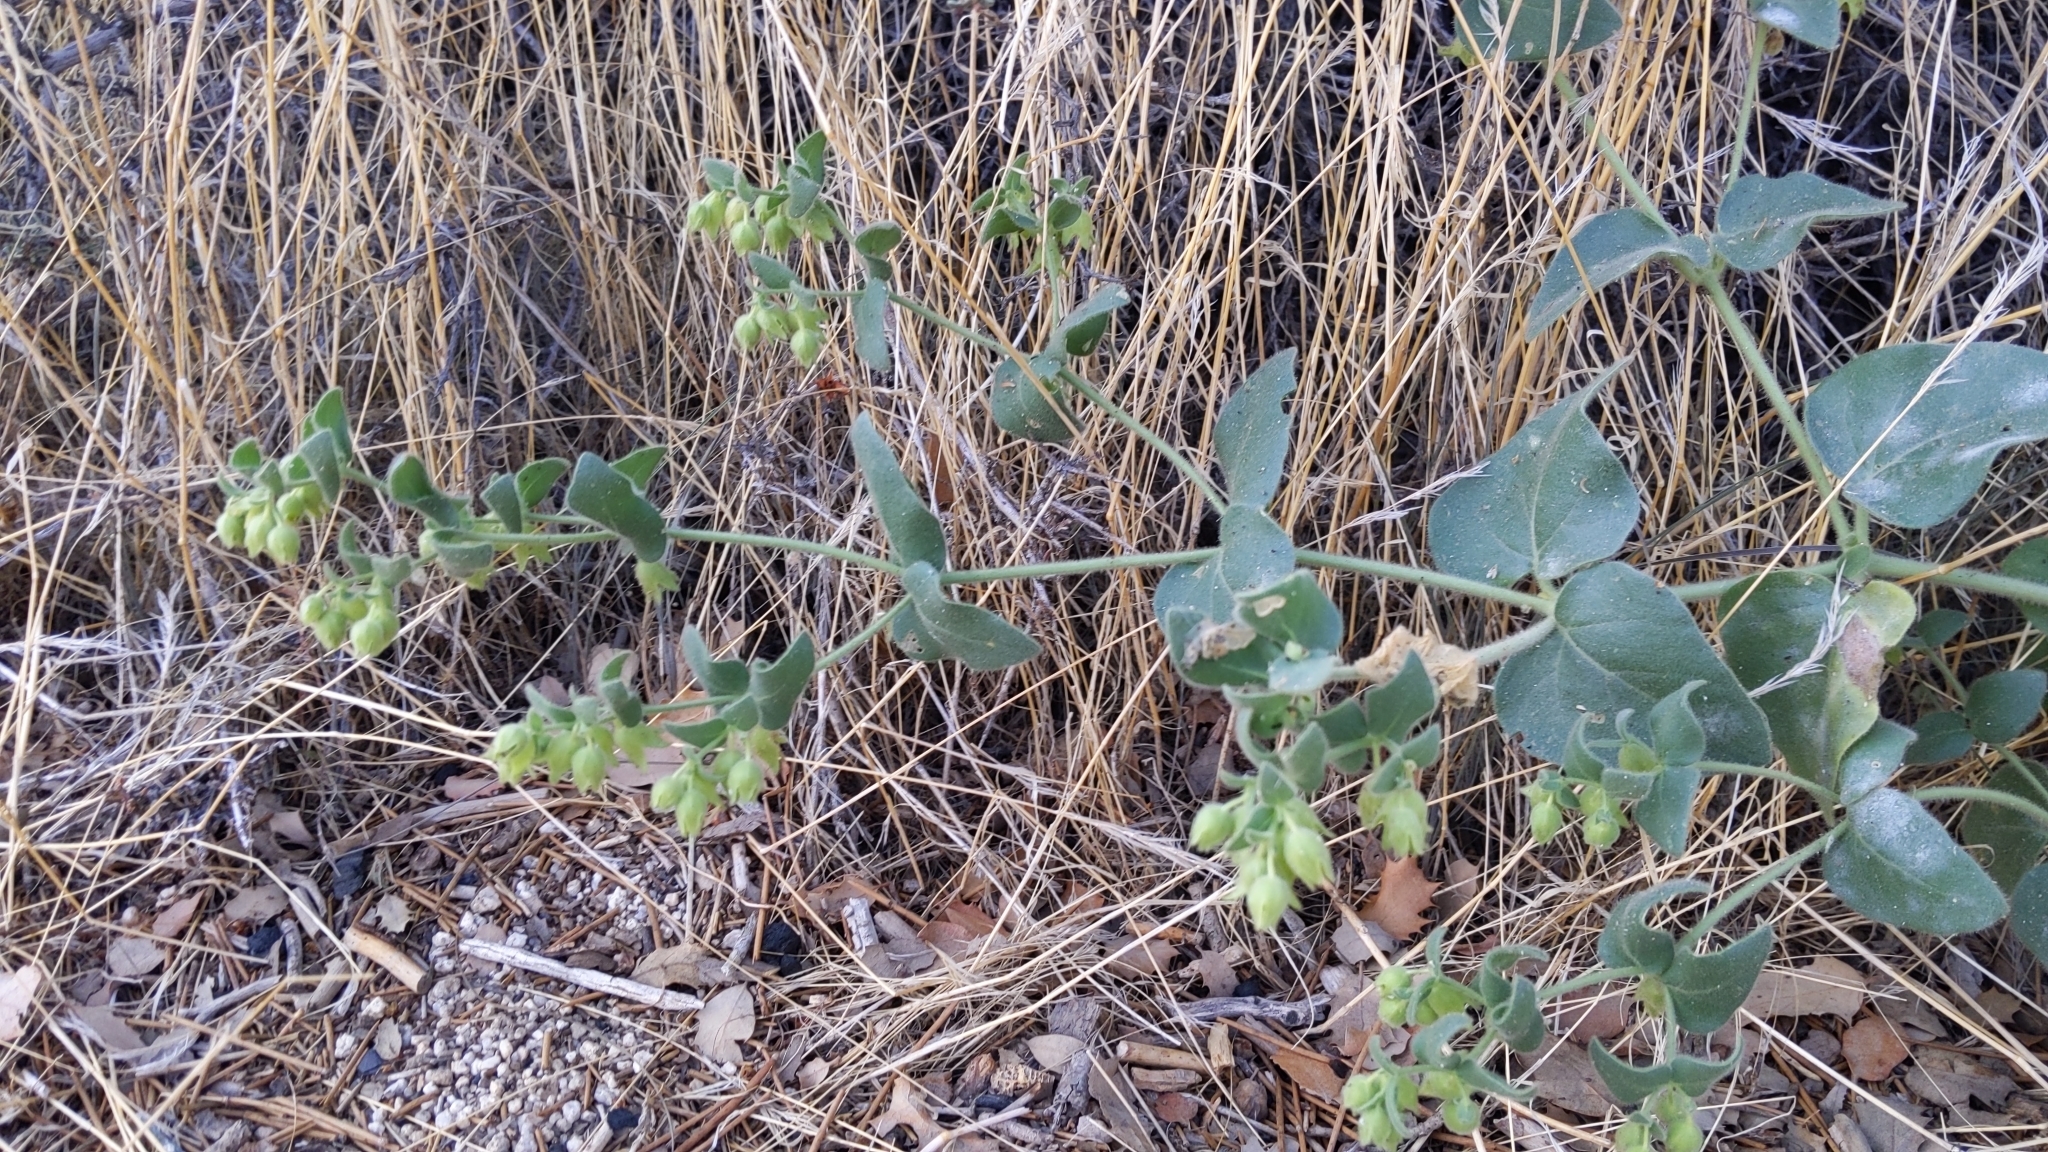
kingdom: Plantae
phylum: Tracheophyta
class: Magnoliopsida
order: Caryophyllales
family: Nyctaginaceae
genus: Mirabilis
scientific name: Mirabilis laevis
